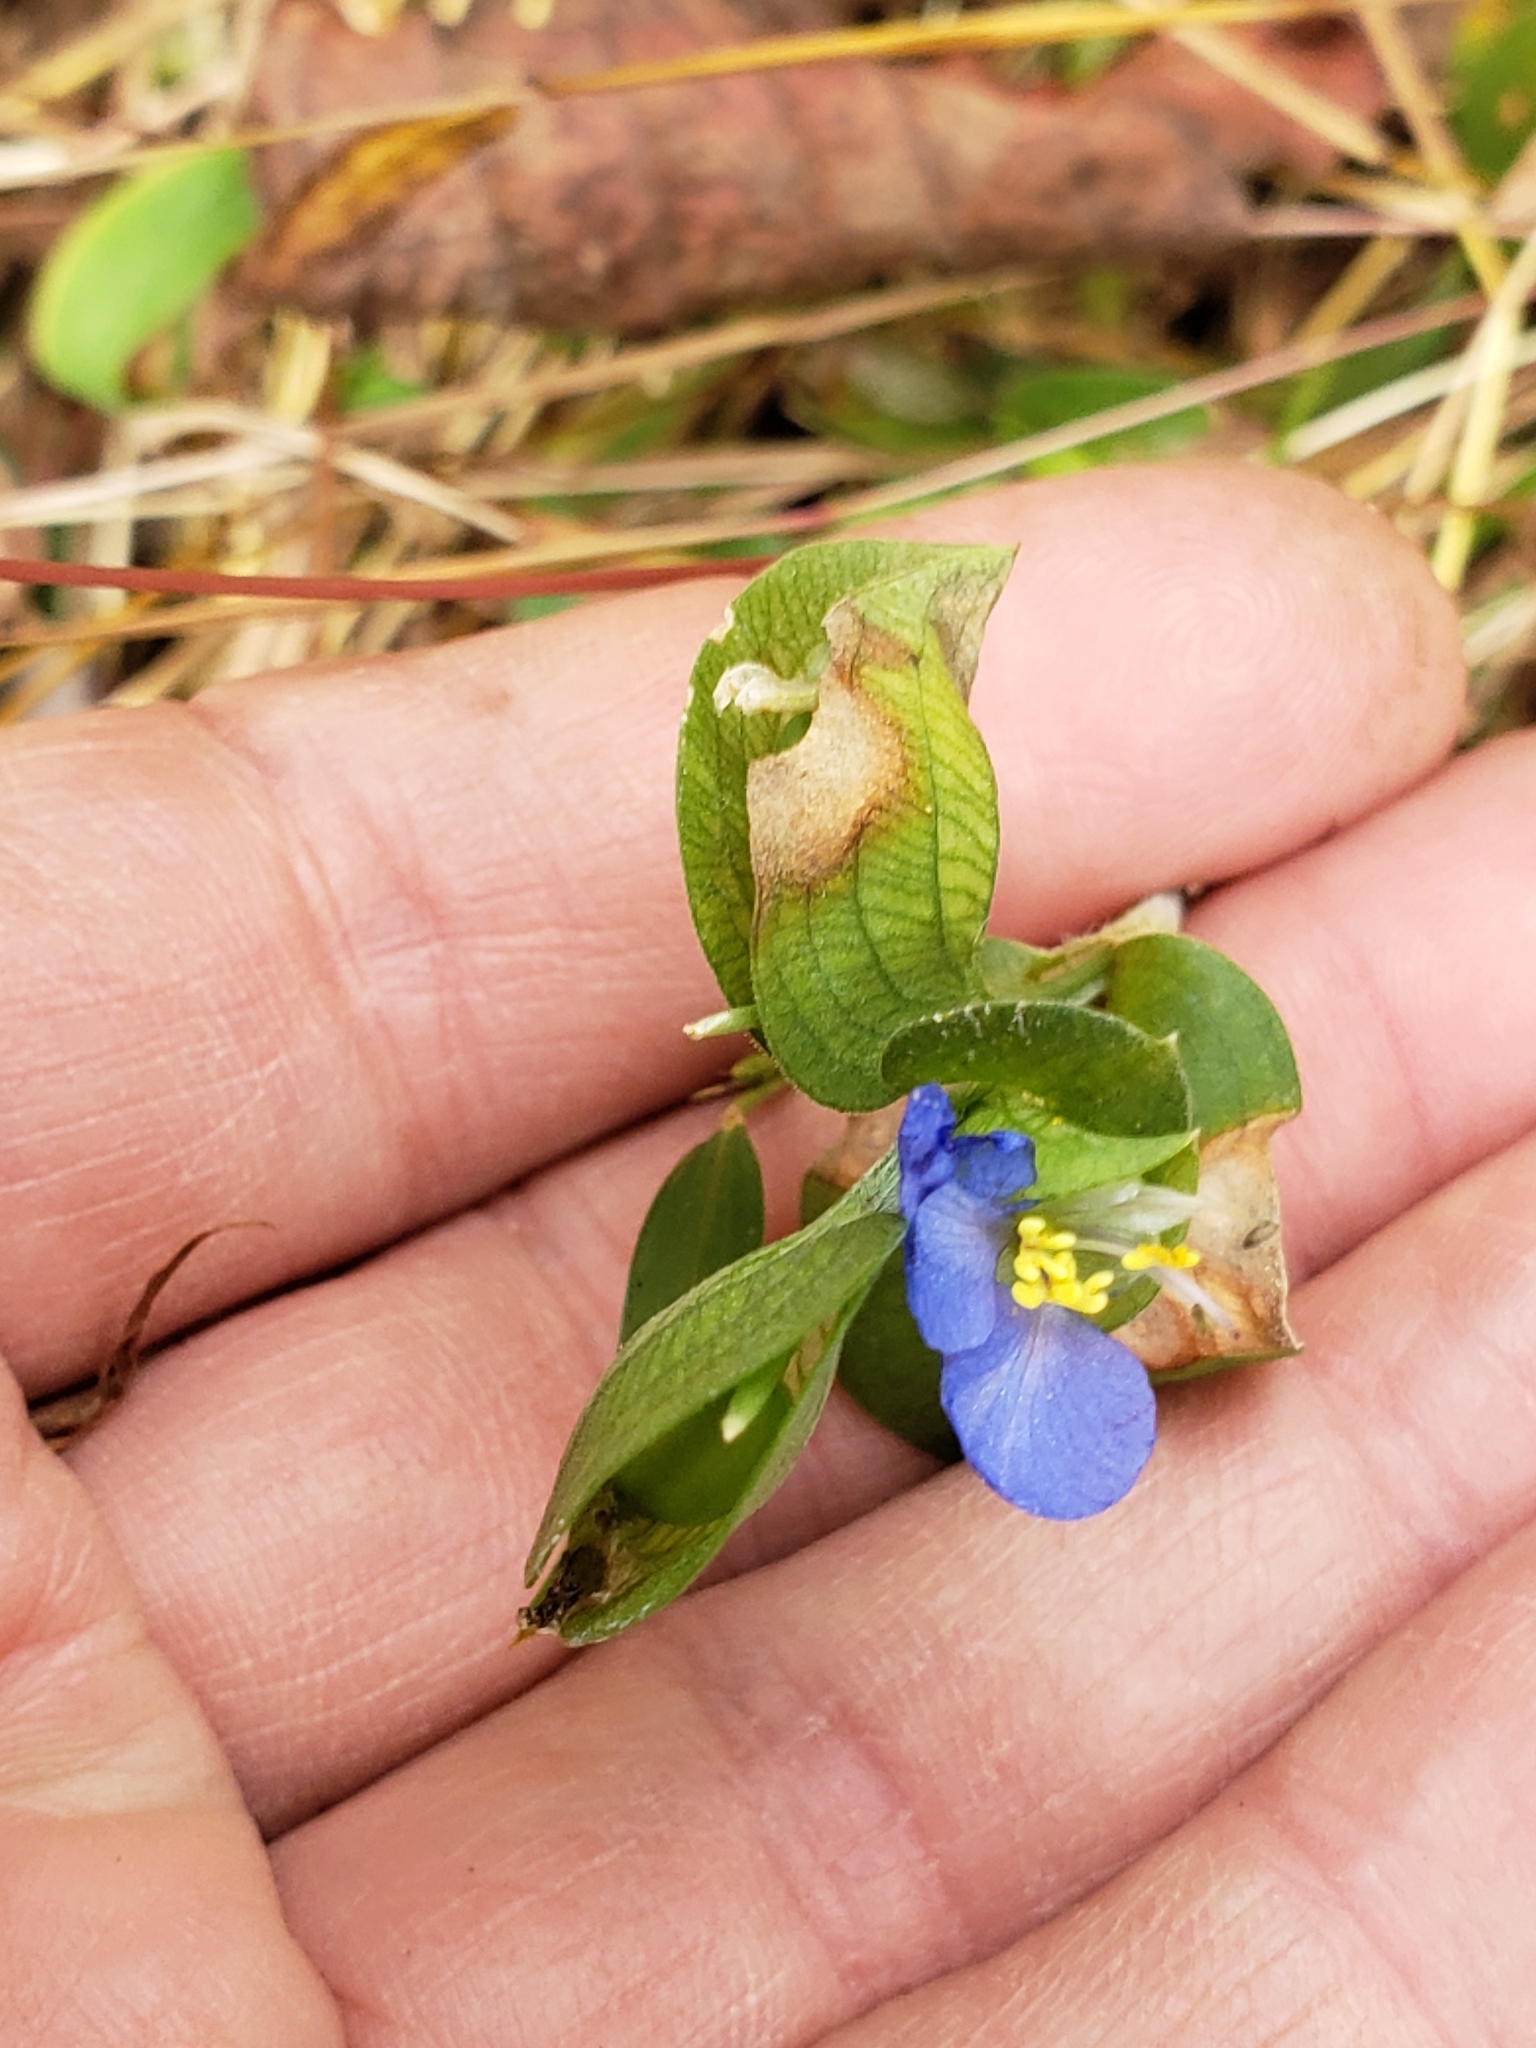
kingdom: Plantae
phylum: Tracheophyta
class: Liliopsida
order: Commelinales
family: Commelinaceae
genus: Commelina
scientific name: Commelina communis
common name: Asiatic dayflower
